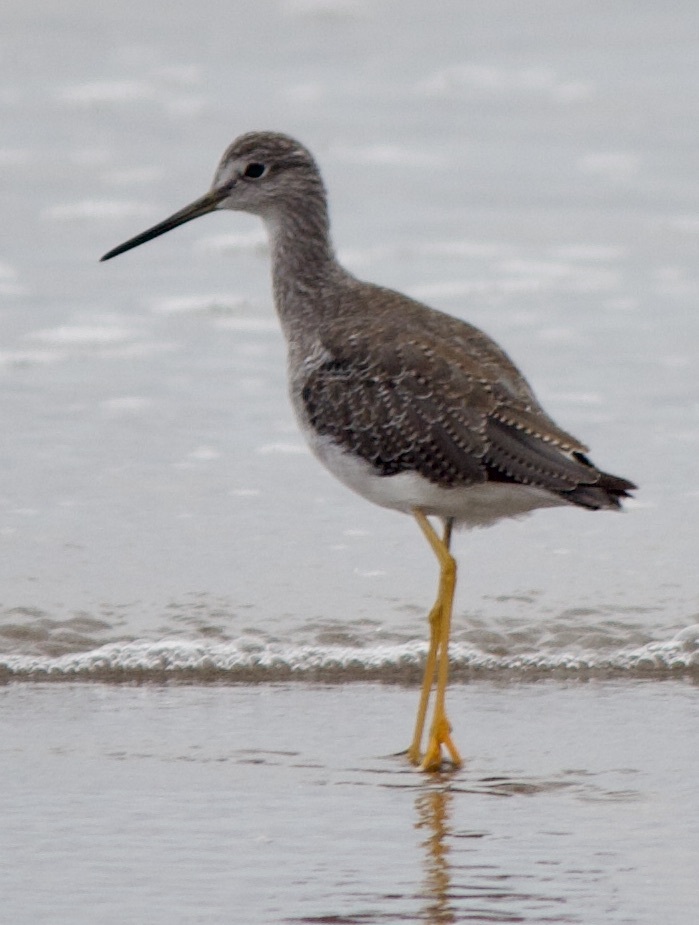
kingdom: Animalia
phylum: Chordata
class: Aves
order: Charadriiformes
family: Scolopacidae
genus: Tringa
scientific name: Tringa melanoleuca
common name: Greater yellowlegs
